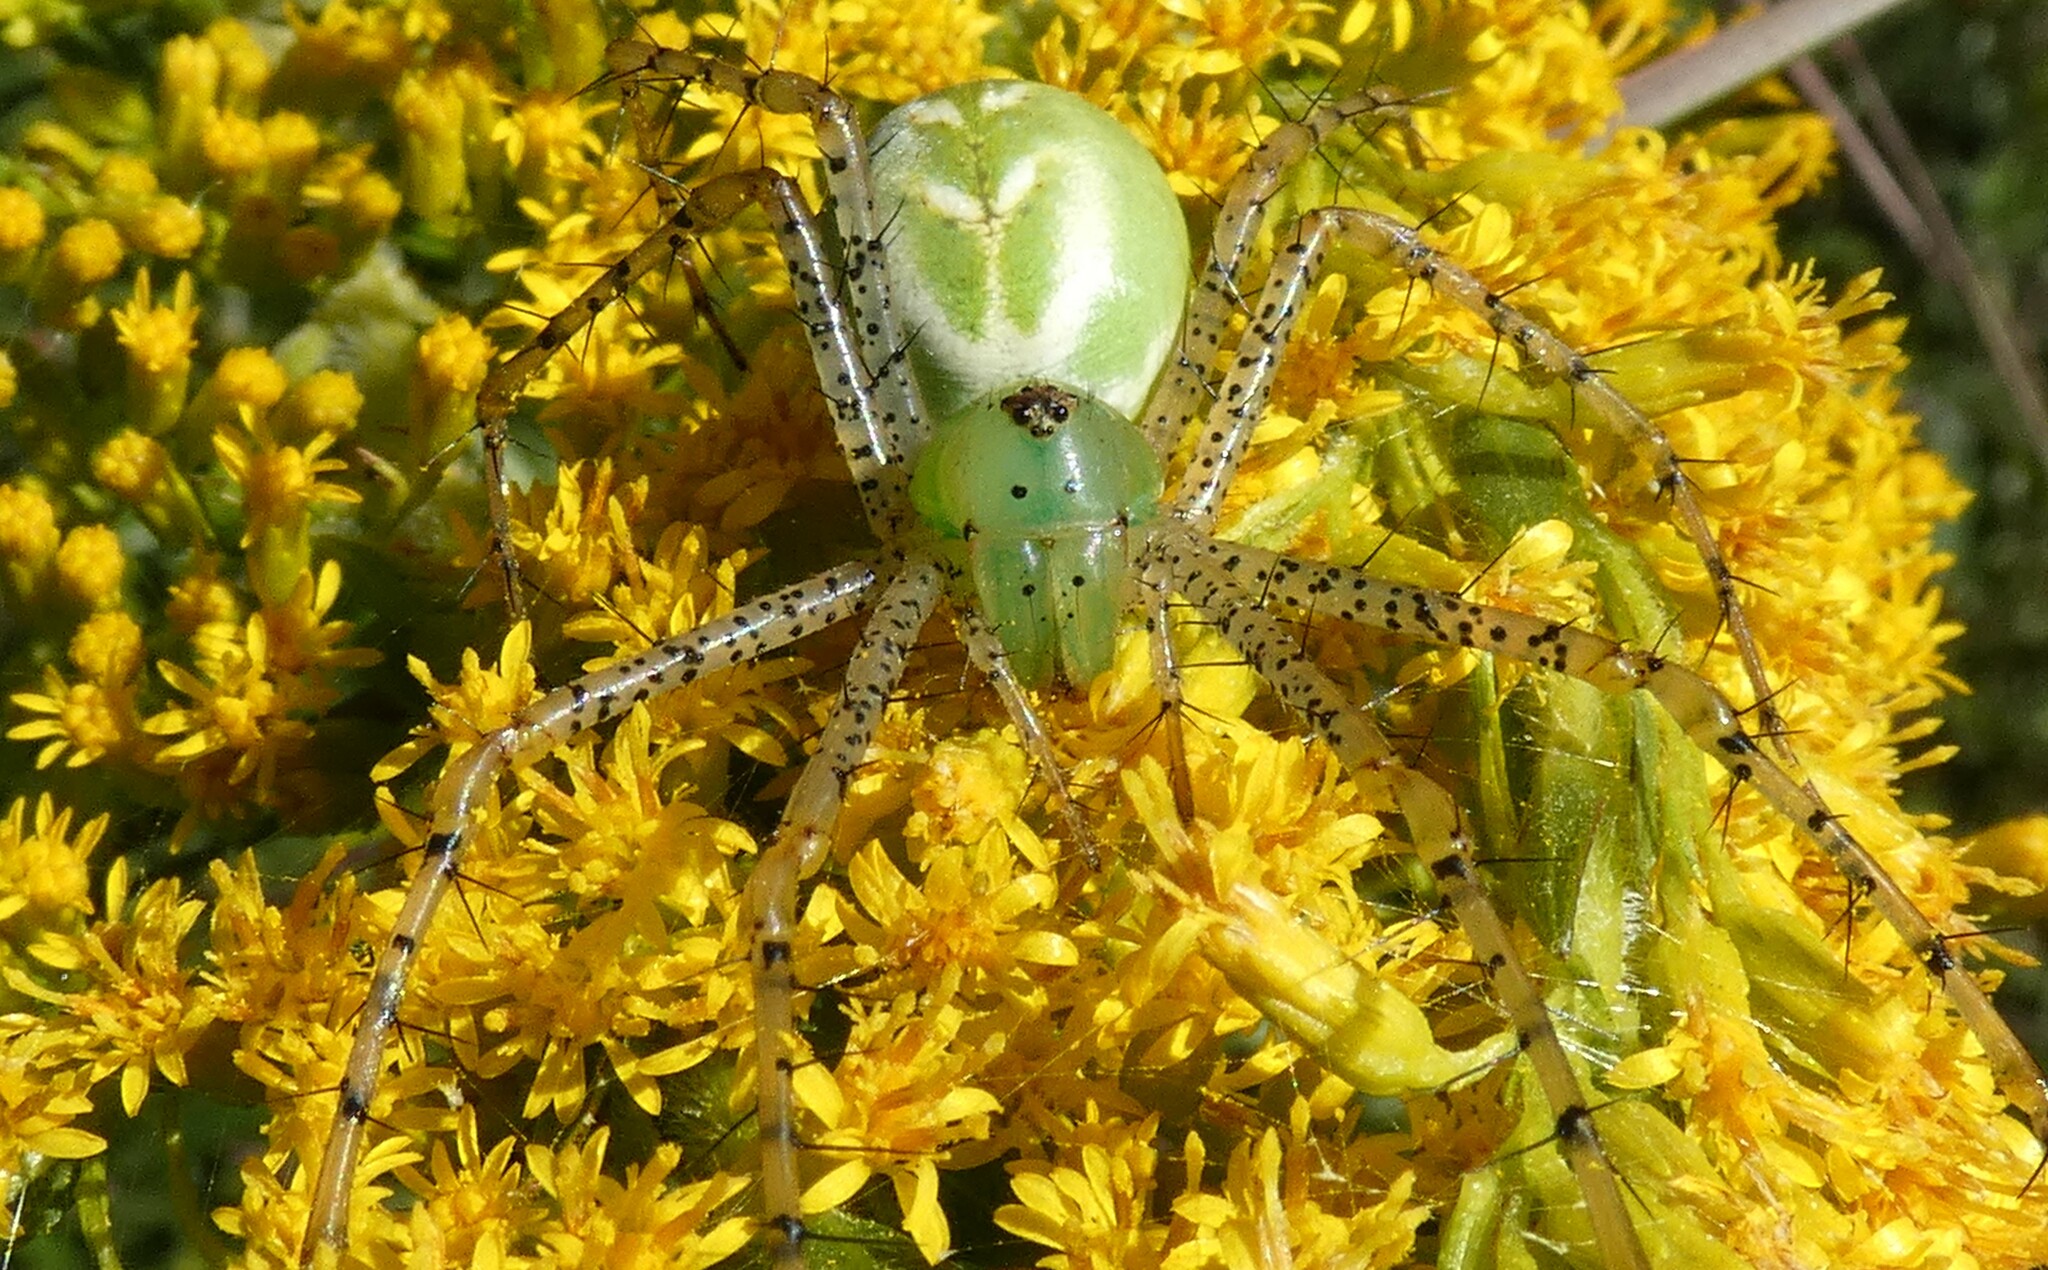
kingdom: Animalia
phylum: Arthropoda
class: Arachnida
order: Araneae
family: Oxyopidae
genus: Peucetia
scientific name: Peucetia viridans
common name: Lynx spiders
